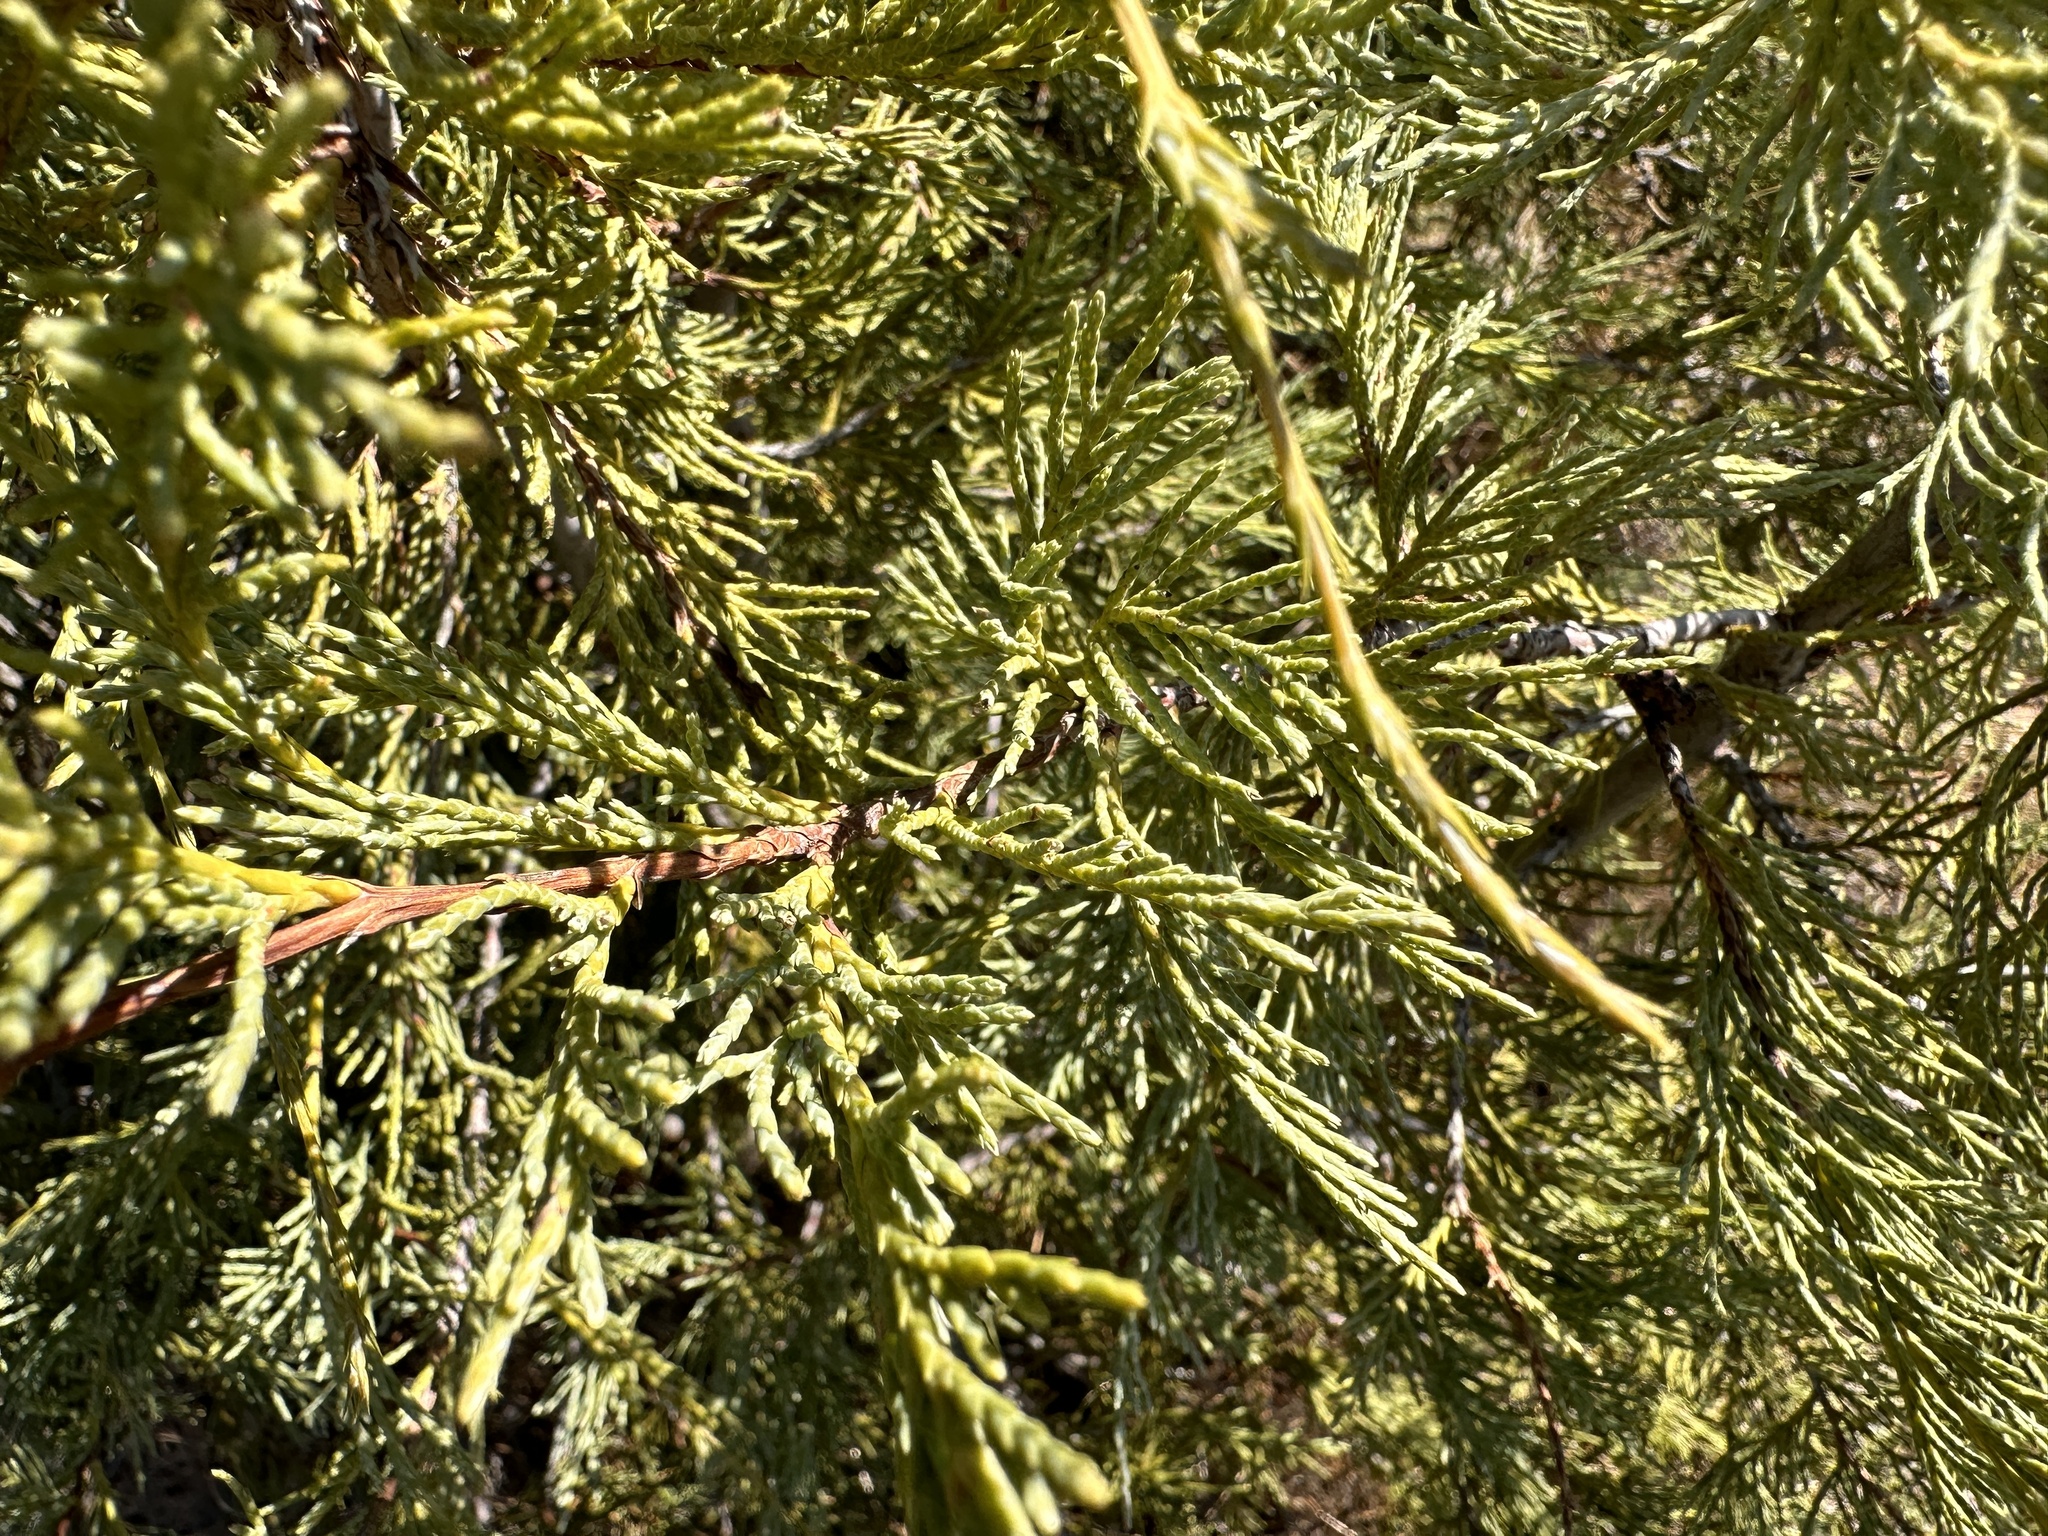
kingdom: Plantae
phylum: Tracheophyta
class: Pinopsida
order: Pinales
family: Cupressaceae
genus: Juniperus
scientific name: Juniperus scopulorum
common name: Rocky mountain juniper
